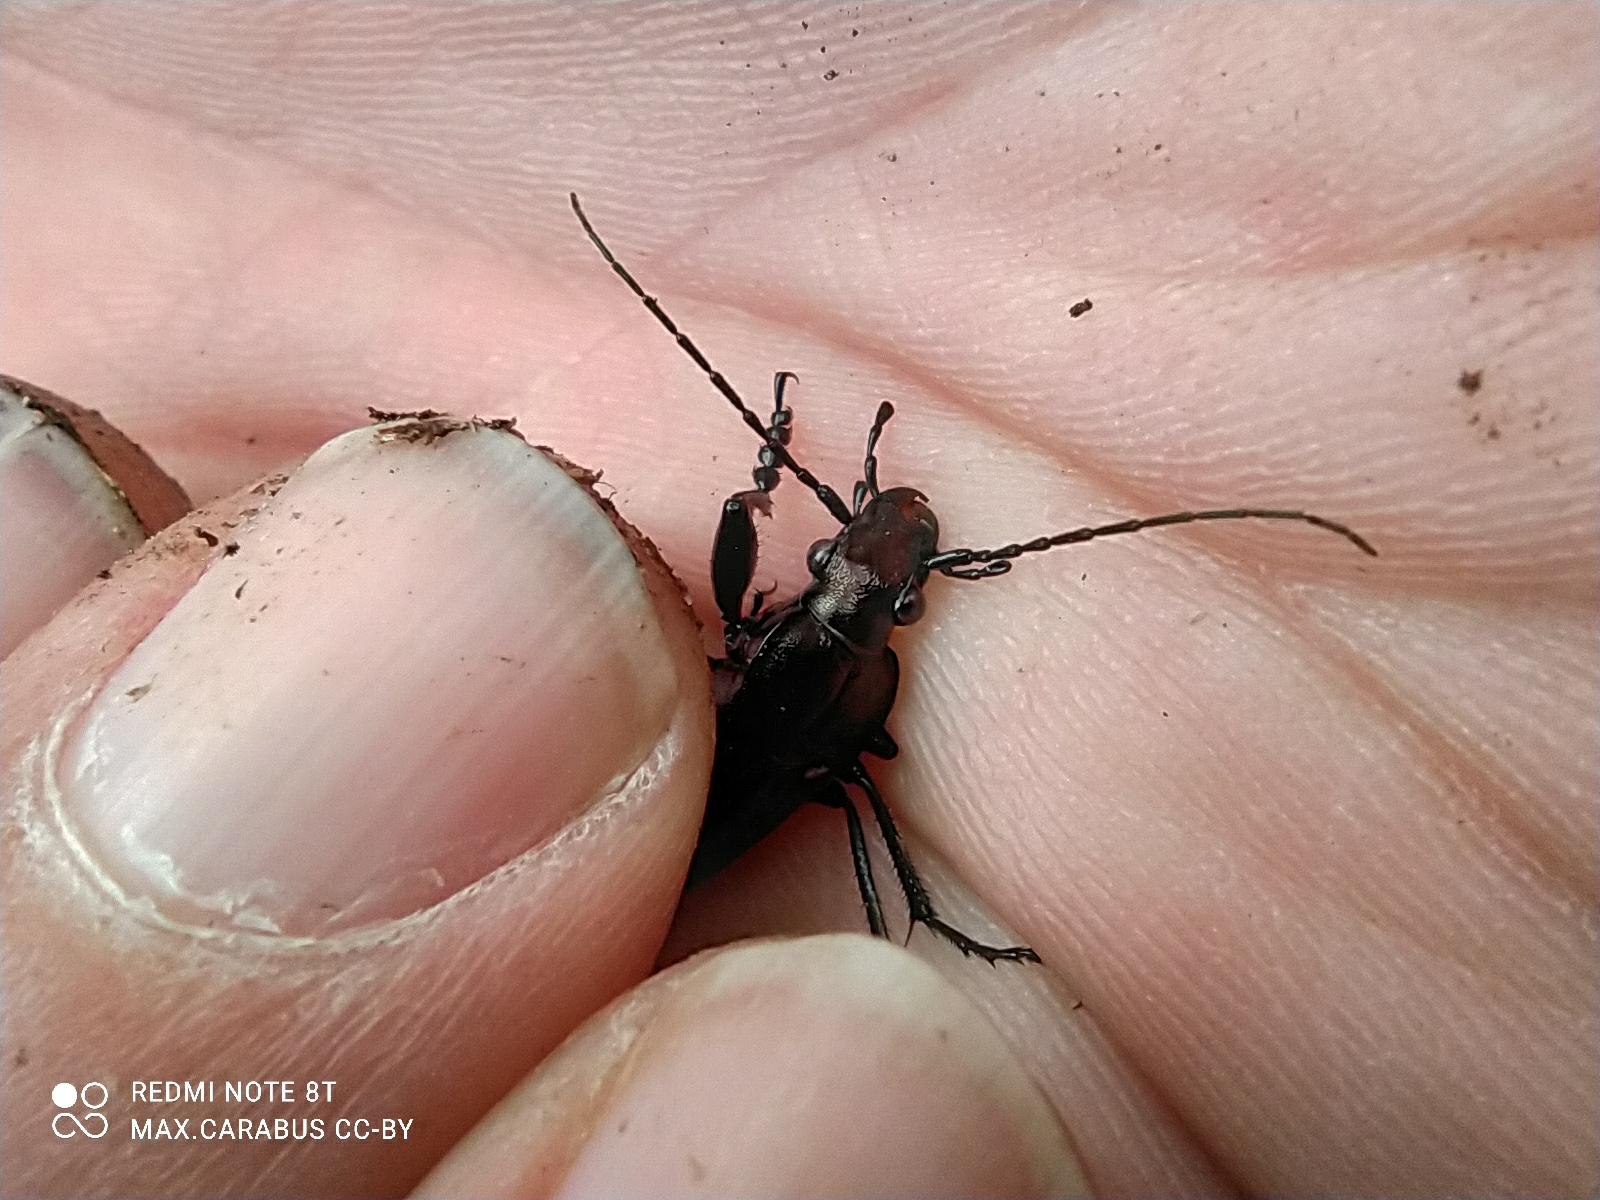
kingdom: Animalia
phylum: Arthropoda
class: Insecta
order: Coleoptera
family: Carabidae
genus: Carabus
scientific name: Carabus granulatus
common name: Granulate ground beetle
